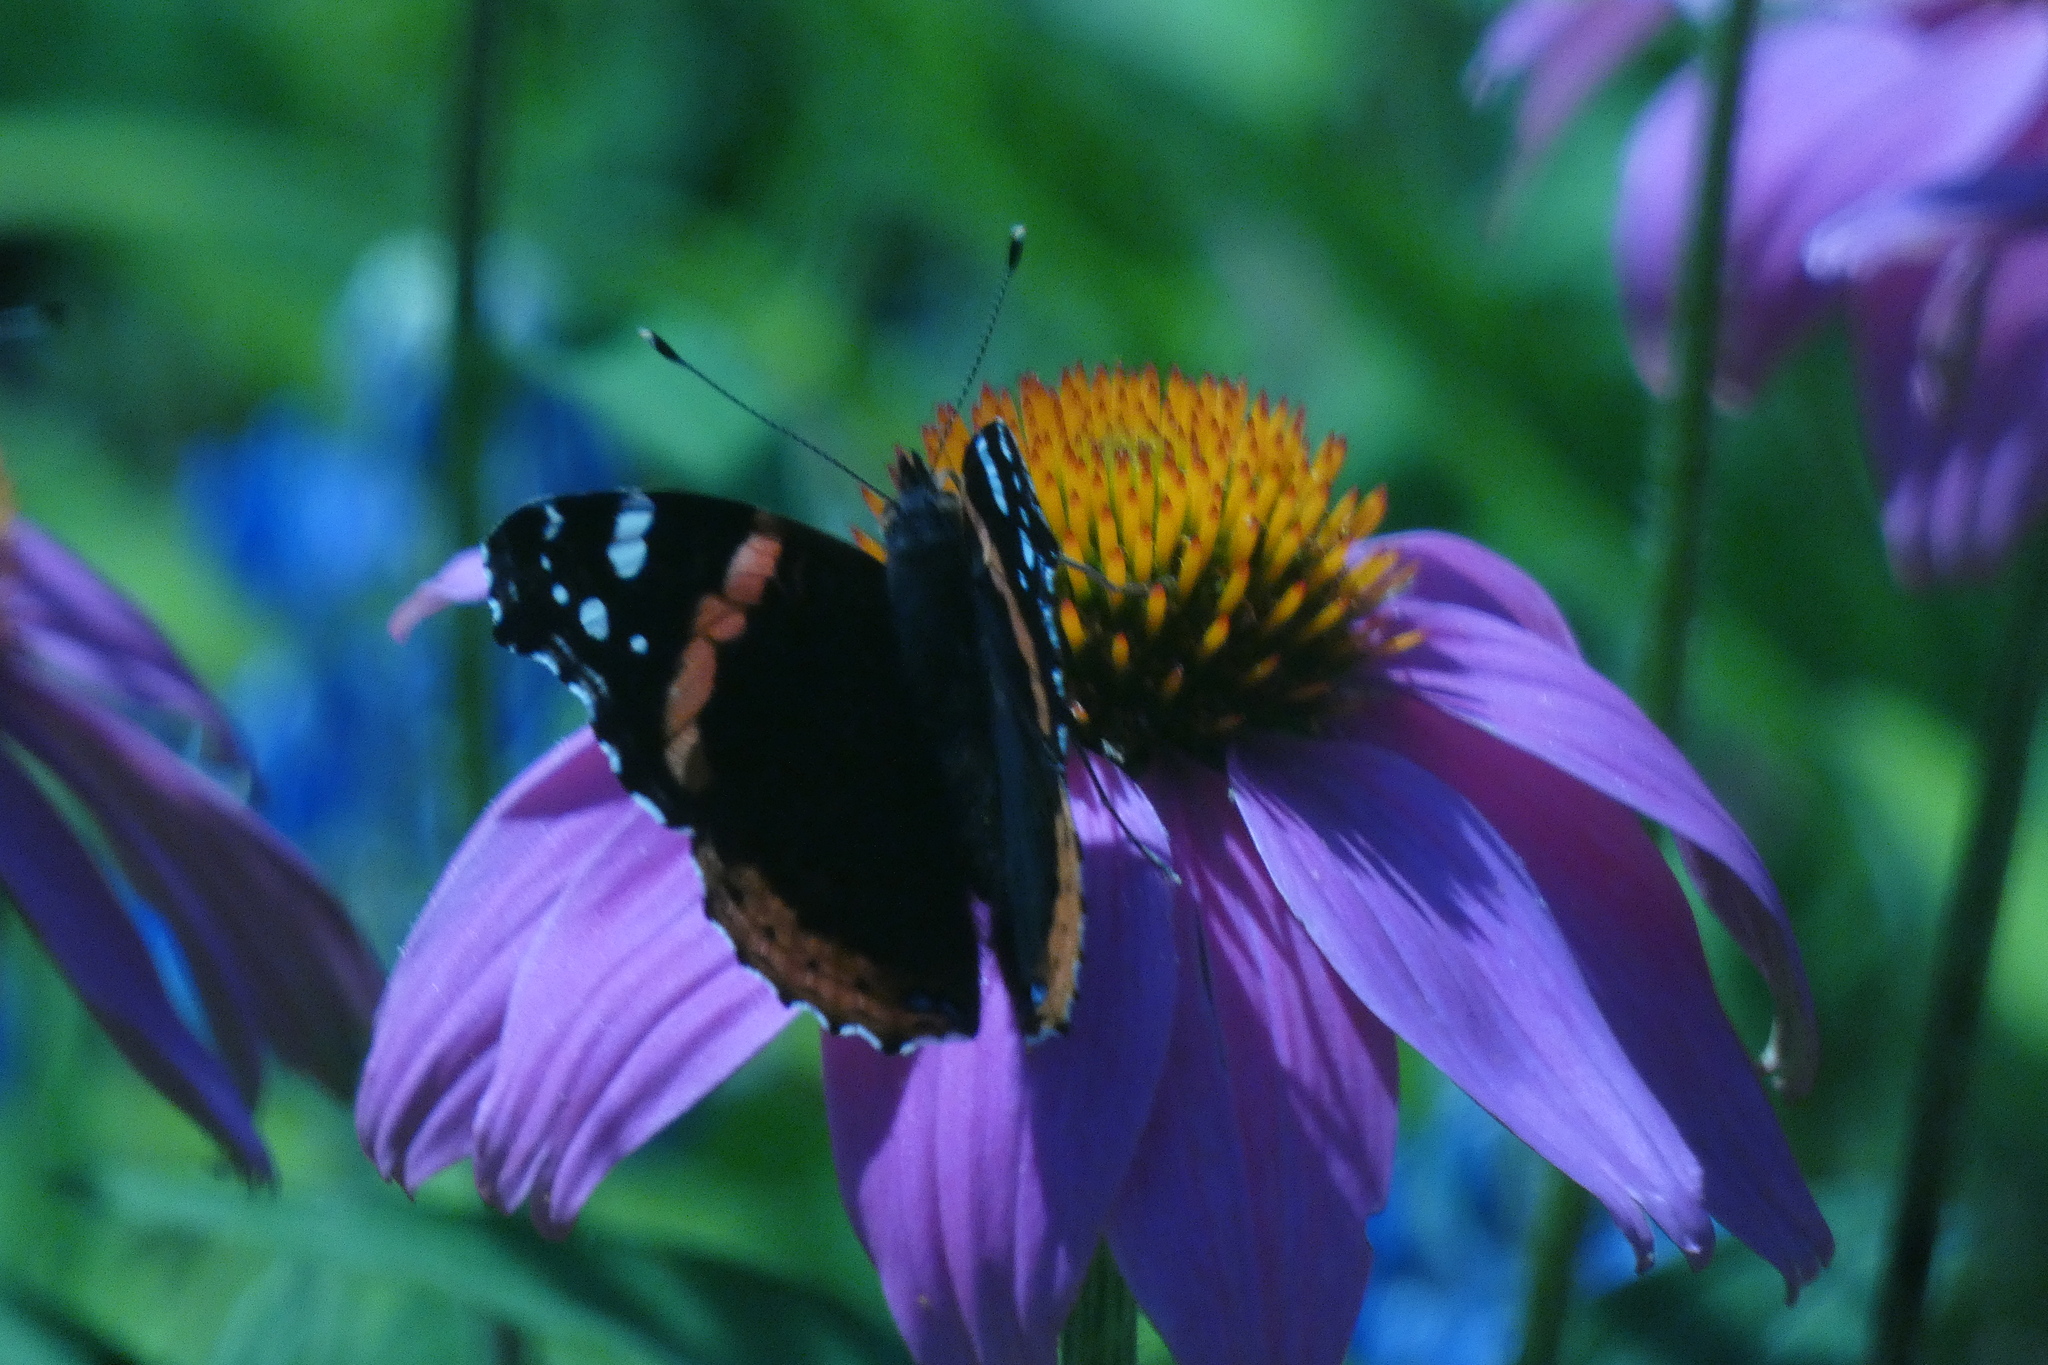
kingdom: Animalia
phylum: Arthropoda
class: Insecta
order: Lepidoptera
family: Nymphalidae
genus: Vanessa
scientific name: Vanessa atalanta
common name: Red admiral
